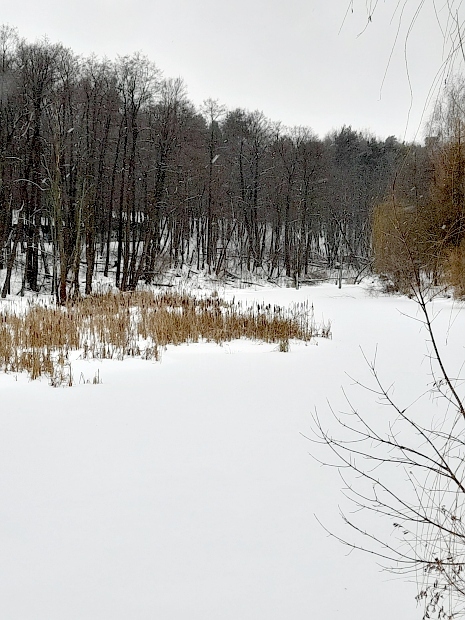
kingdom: Plantae
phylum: Tracheophyta
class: Liliopsida
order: Poales
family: Typhaceae
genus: Typha
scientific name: Typha latifolia
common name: Broadleaf cattail
